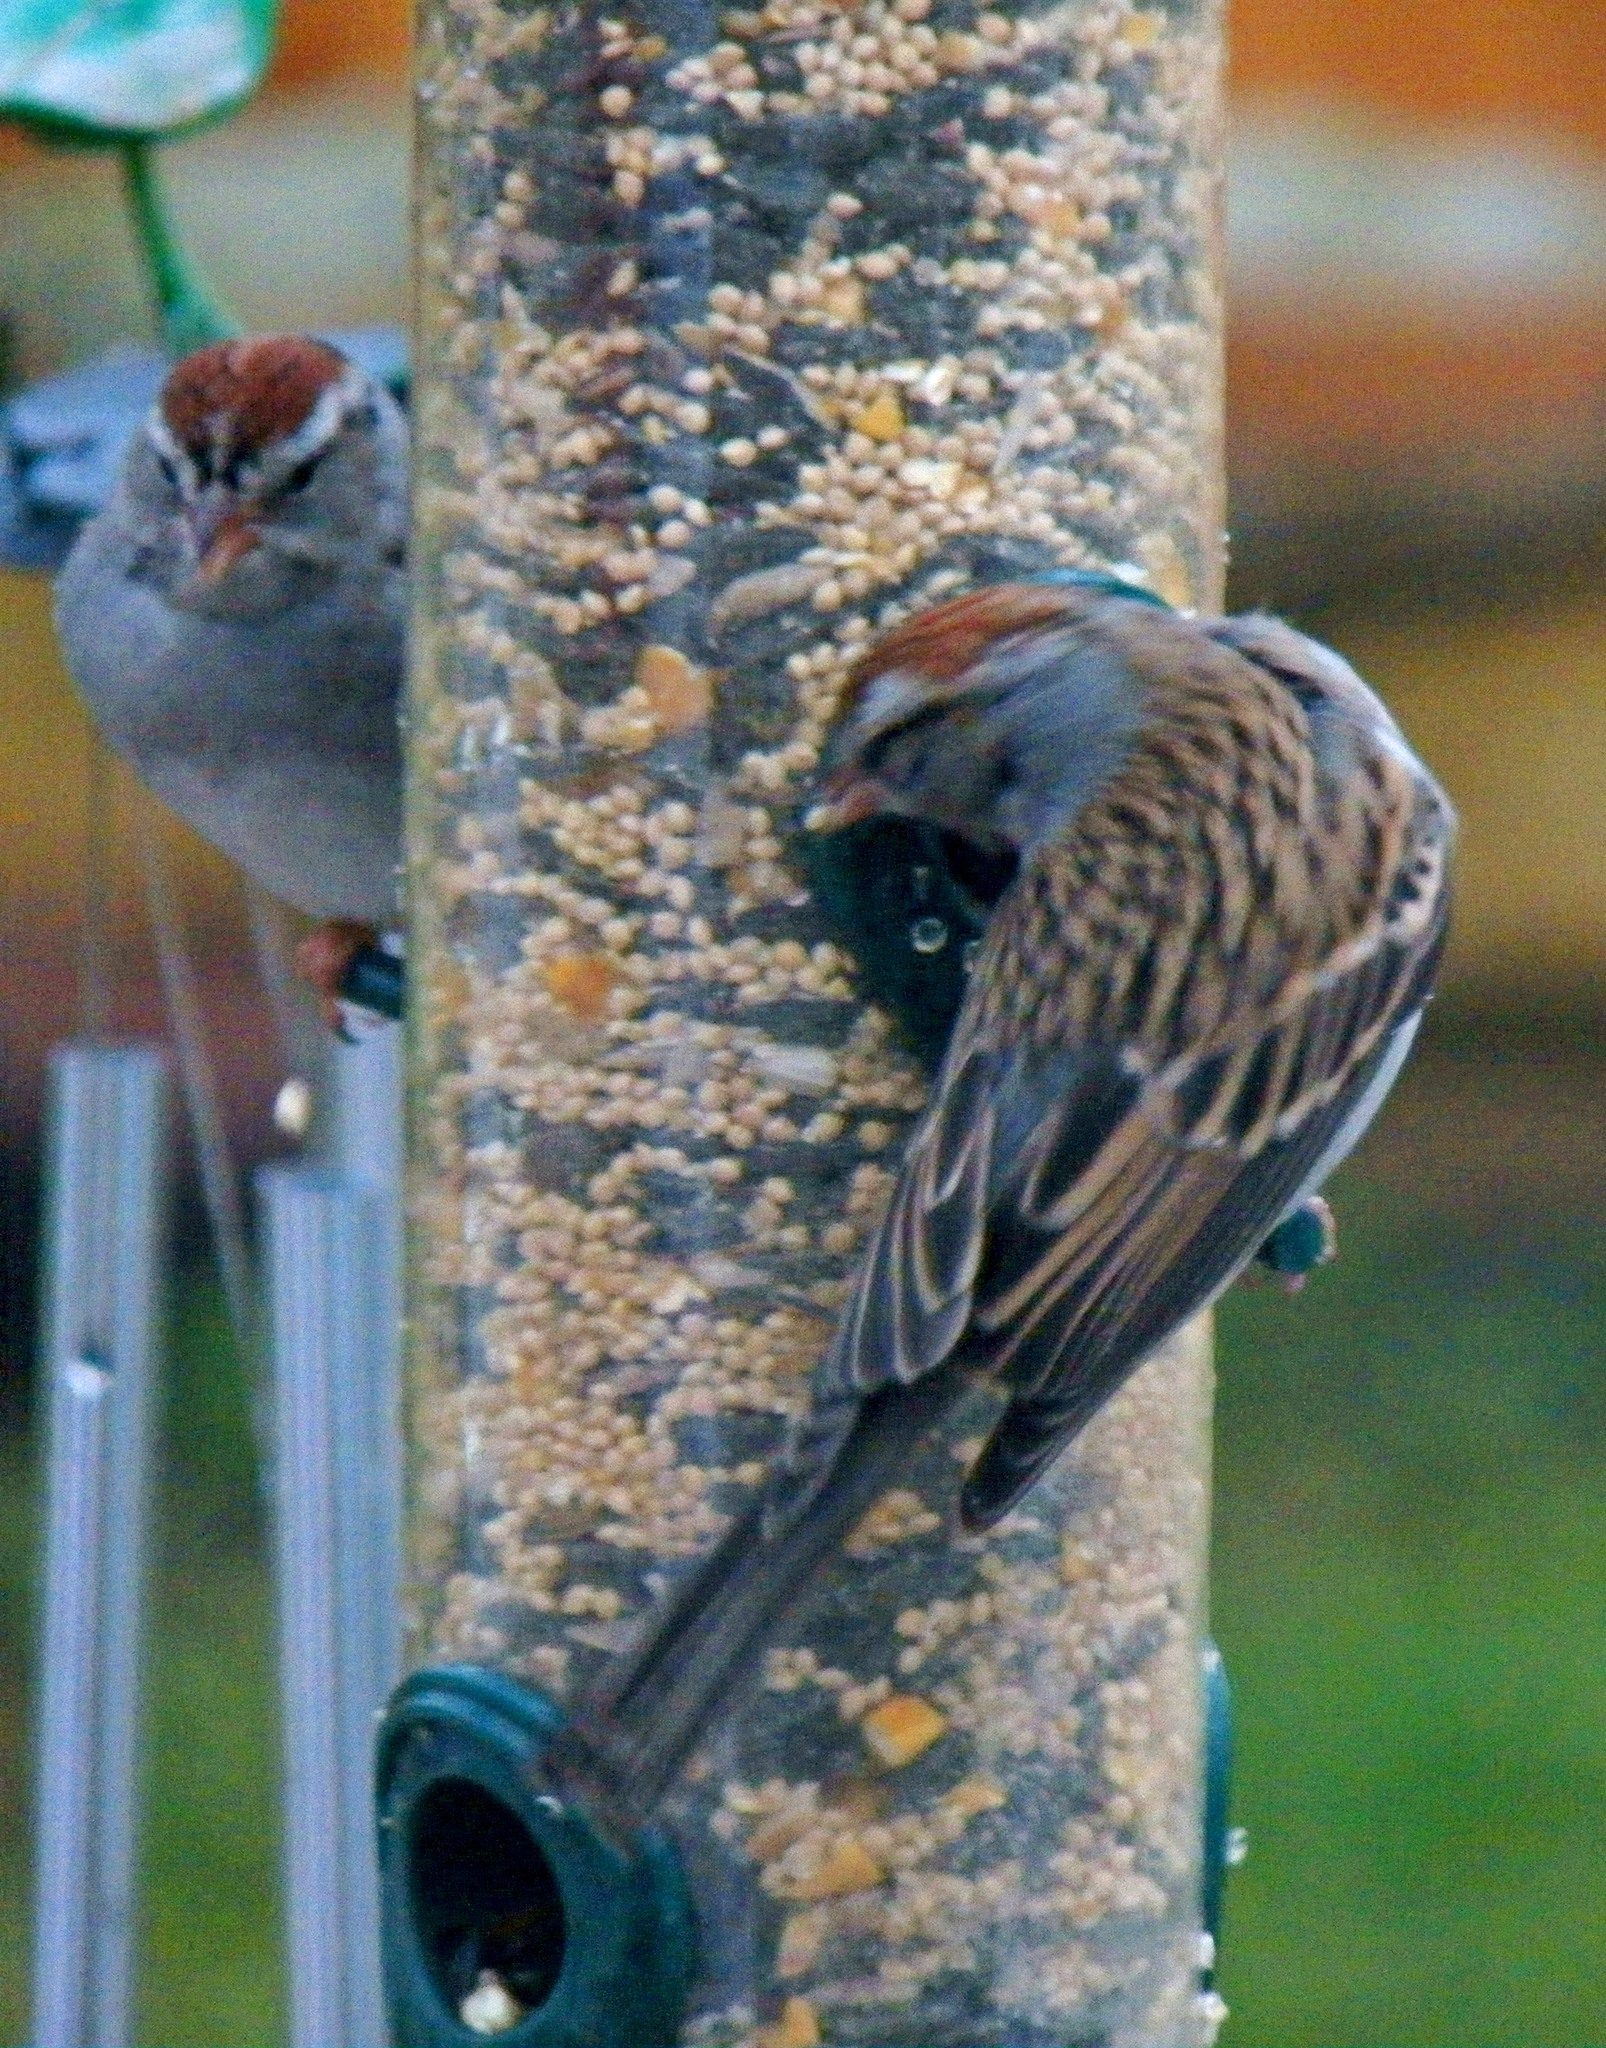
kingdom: Animalia
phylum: Chordata
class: Aves
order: Passeriformes
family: Passerellidae
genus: Spizella
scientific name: Spizella passerina
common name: Chipping sparrow
